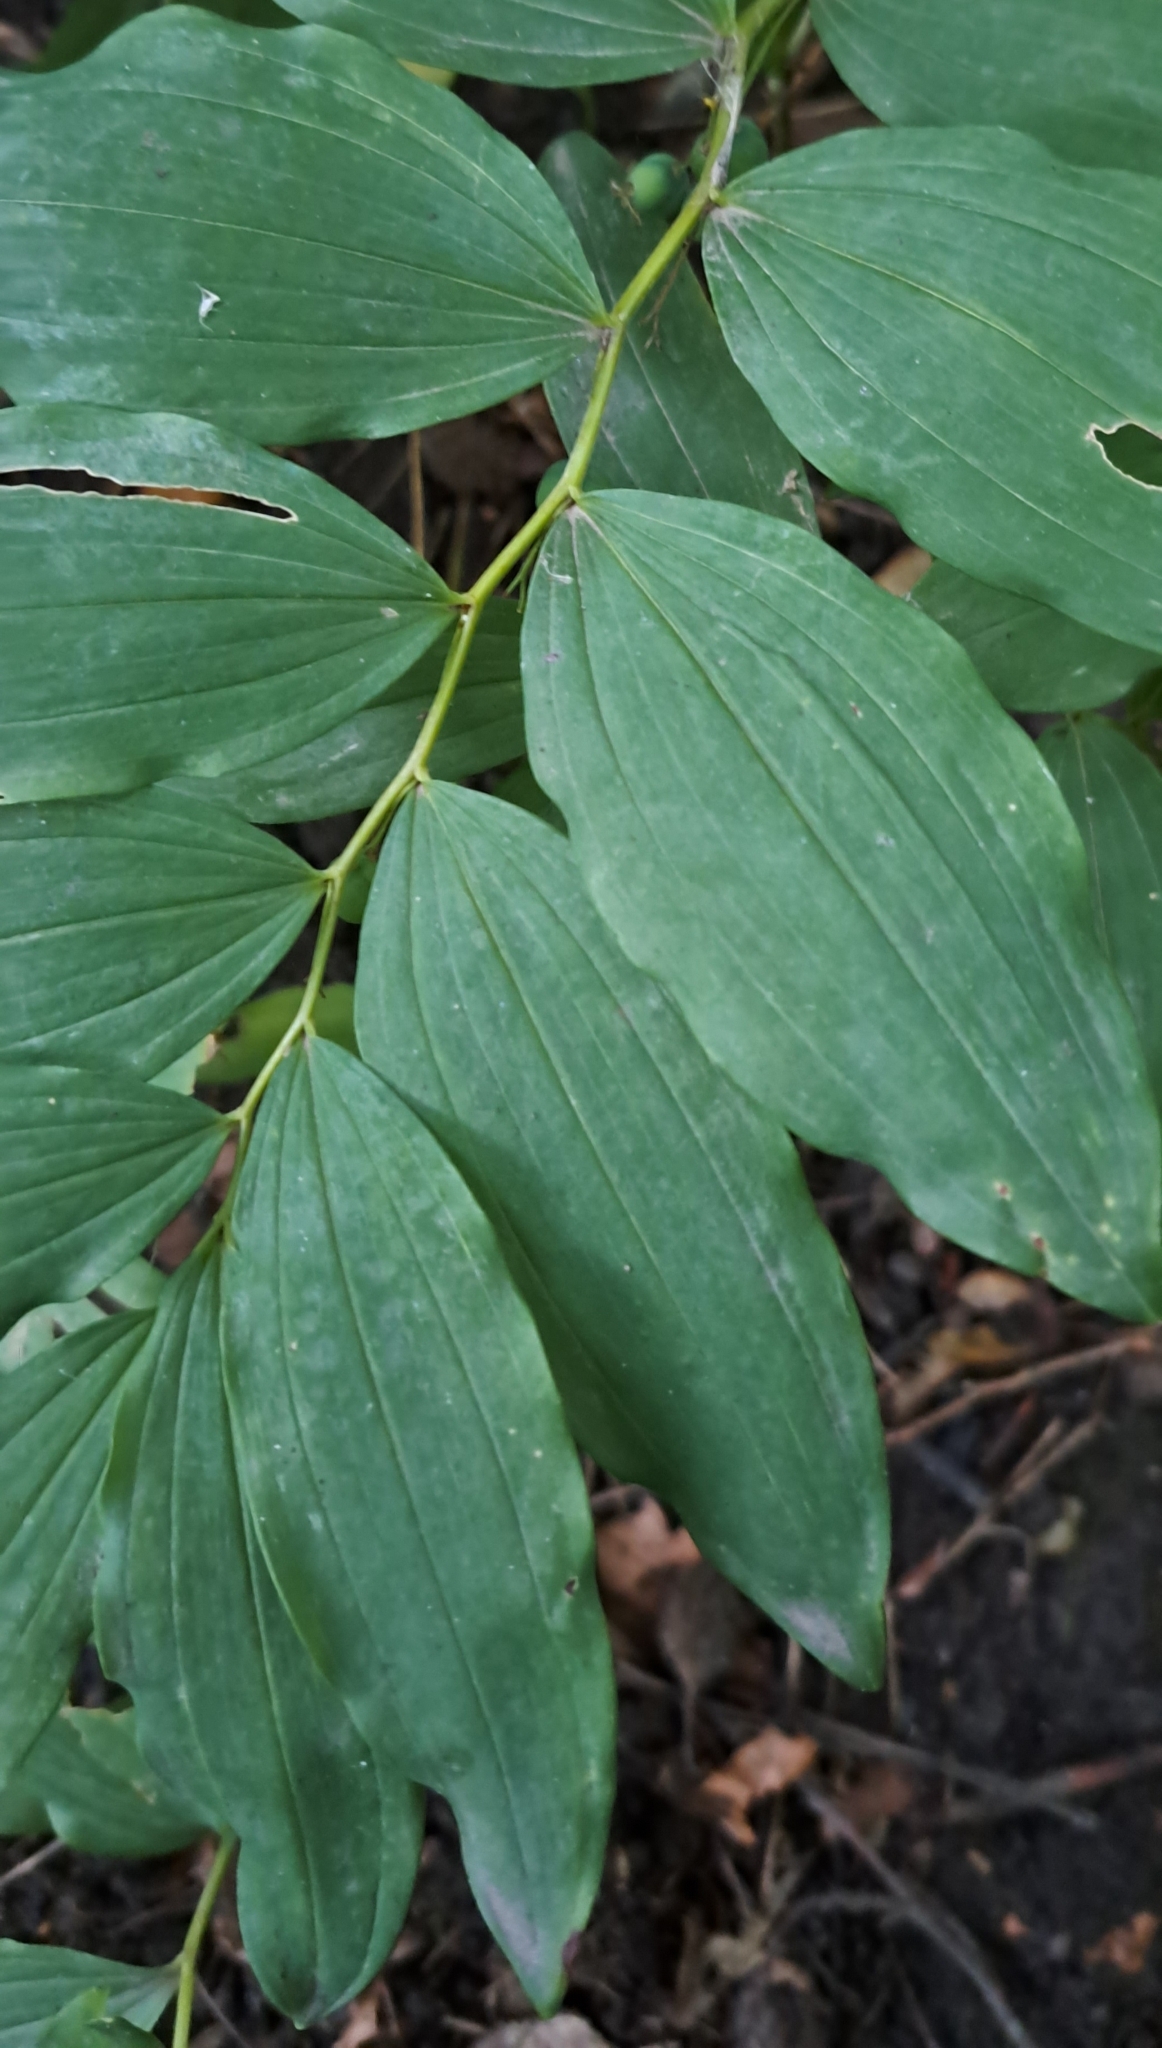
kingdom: Plantae
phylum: Tracheophyta
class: Liliopsida
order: Asparagales
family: Asparagaceae
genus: Polygonatum
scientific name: Polygonatum multiflorum
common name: Solomon's-seal
